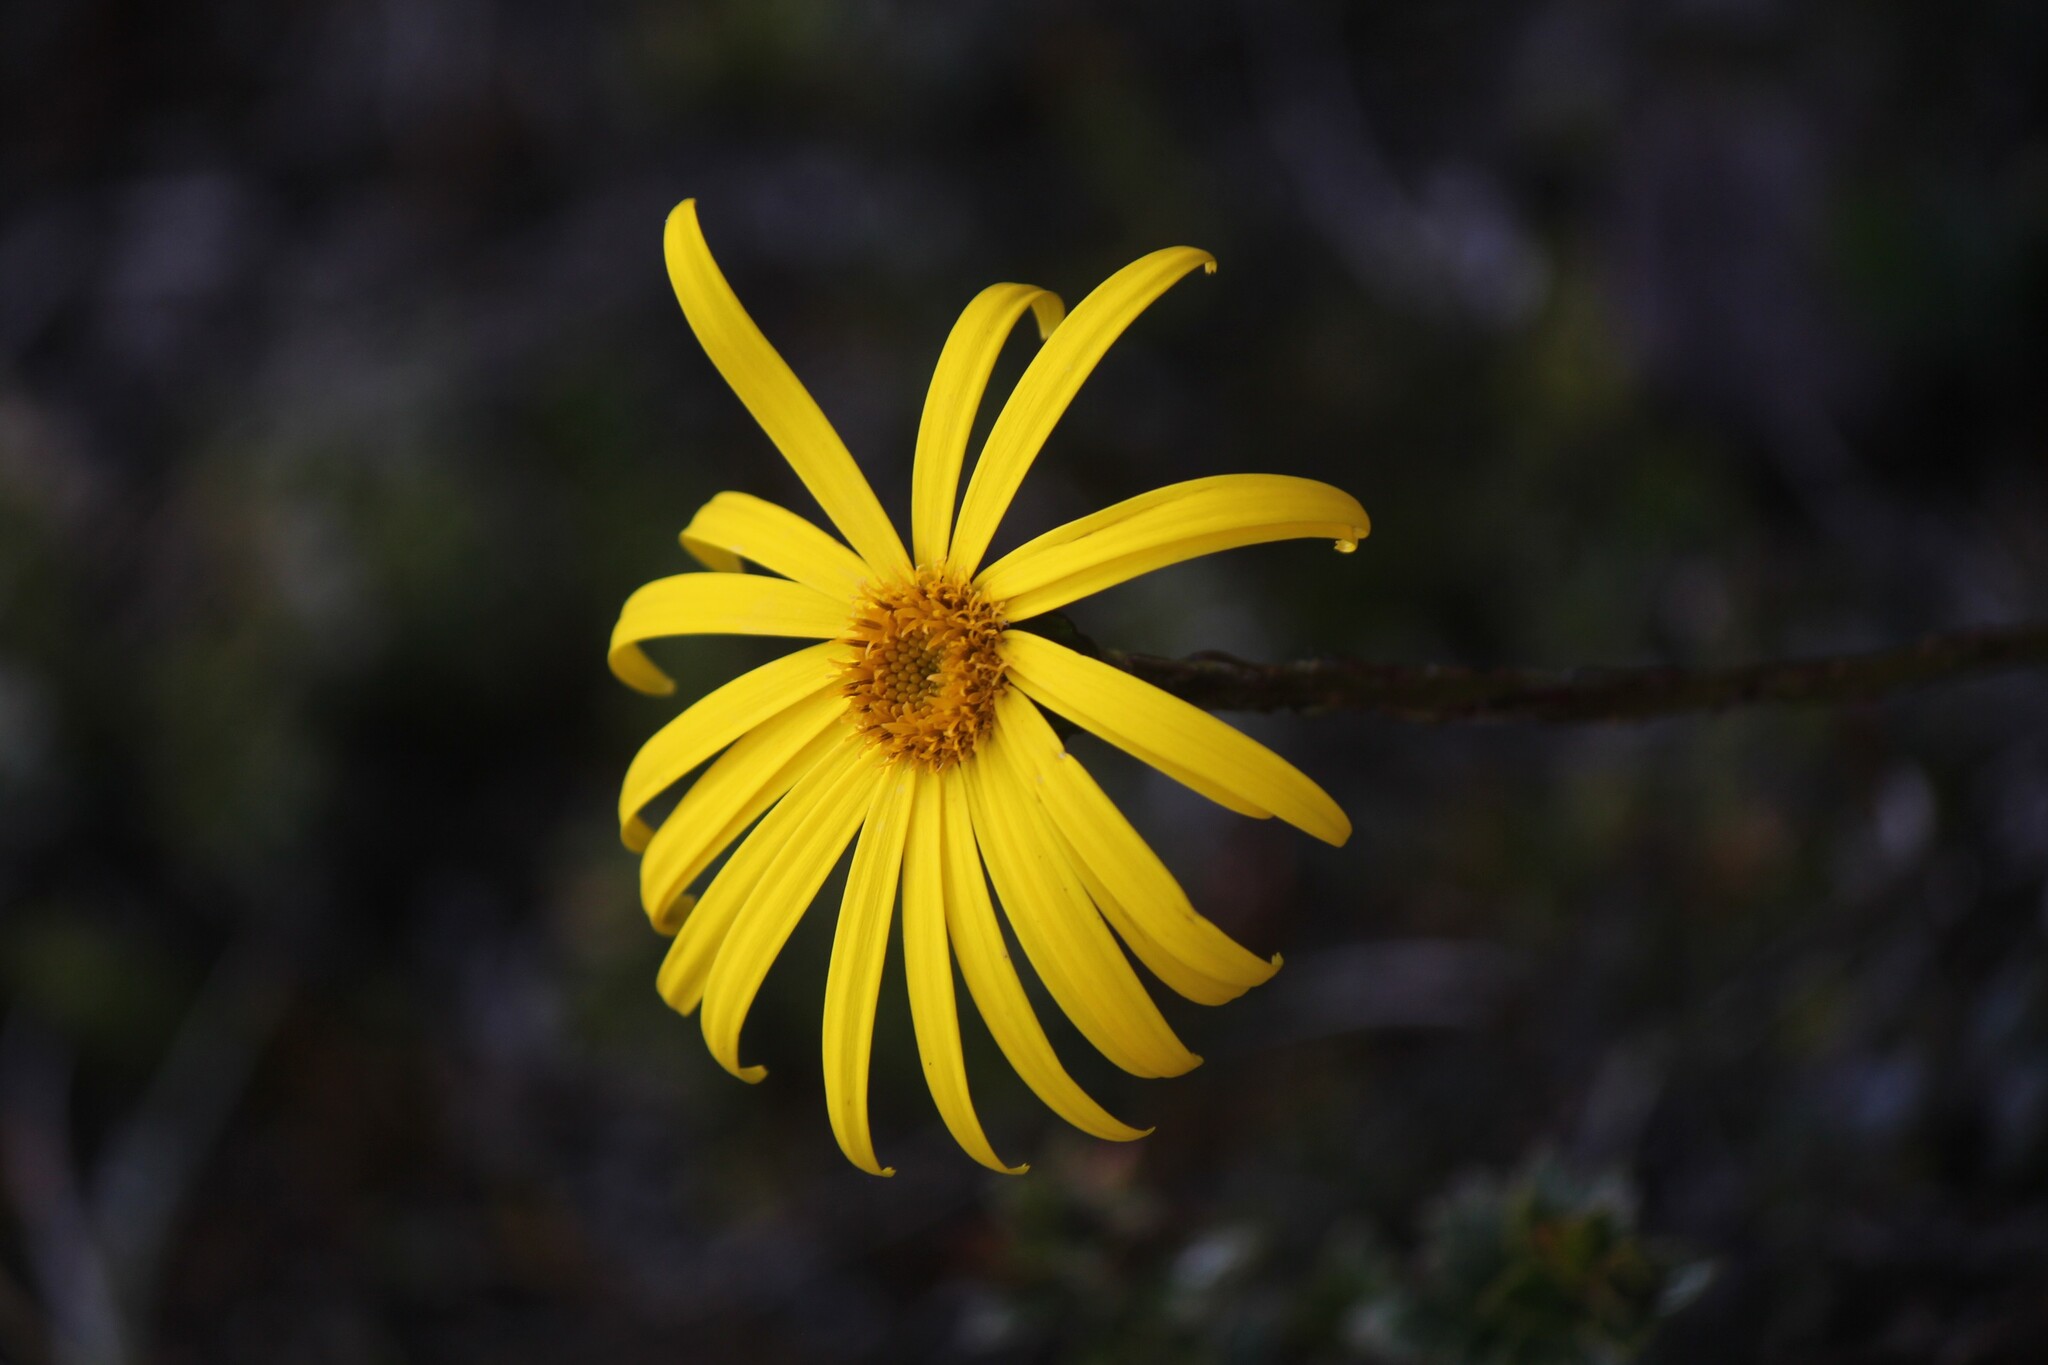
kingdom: Plantae
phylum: Tracheophyta
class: Magnoliopsida
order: Asterales
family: Asteraceae
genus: Dorobaea
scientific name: Dorobaea pimpinellifolia
